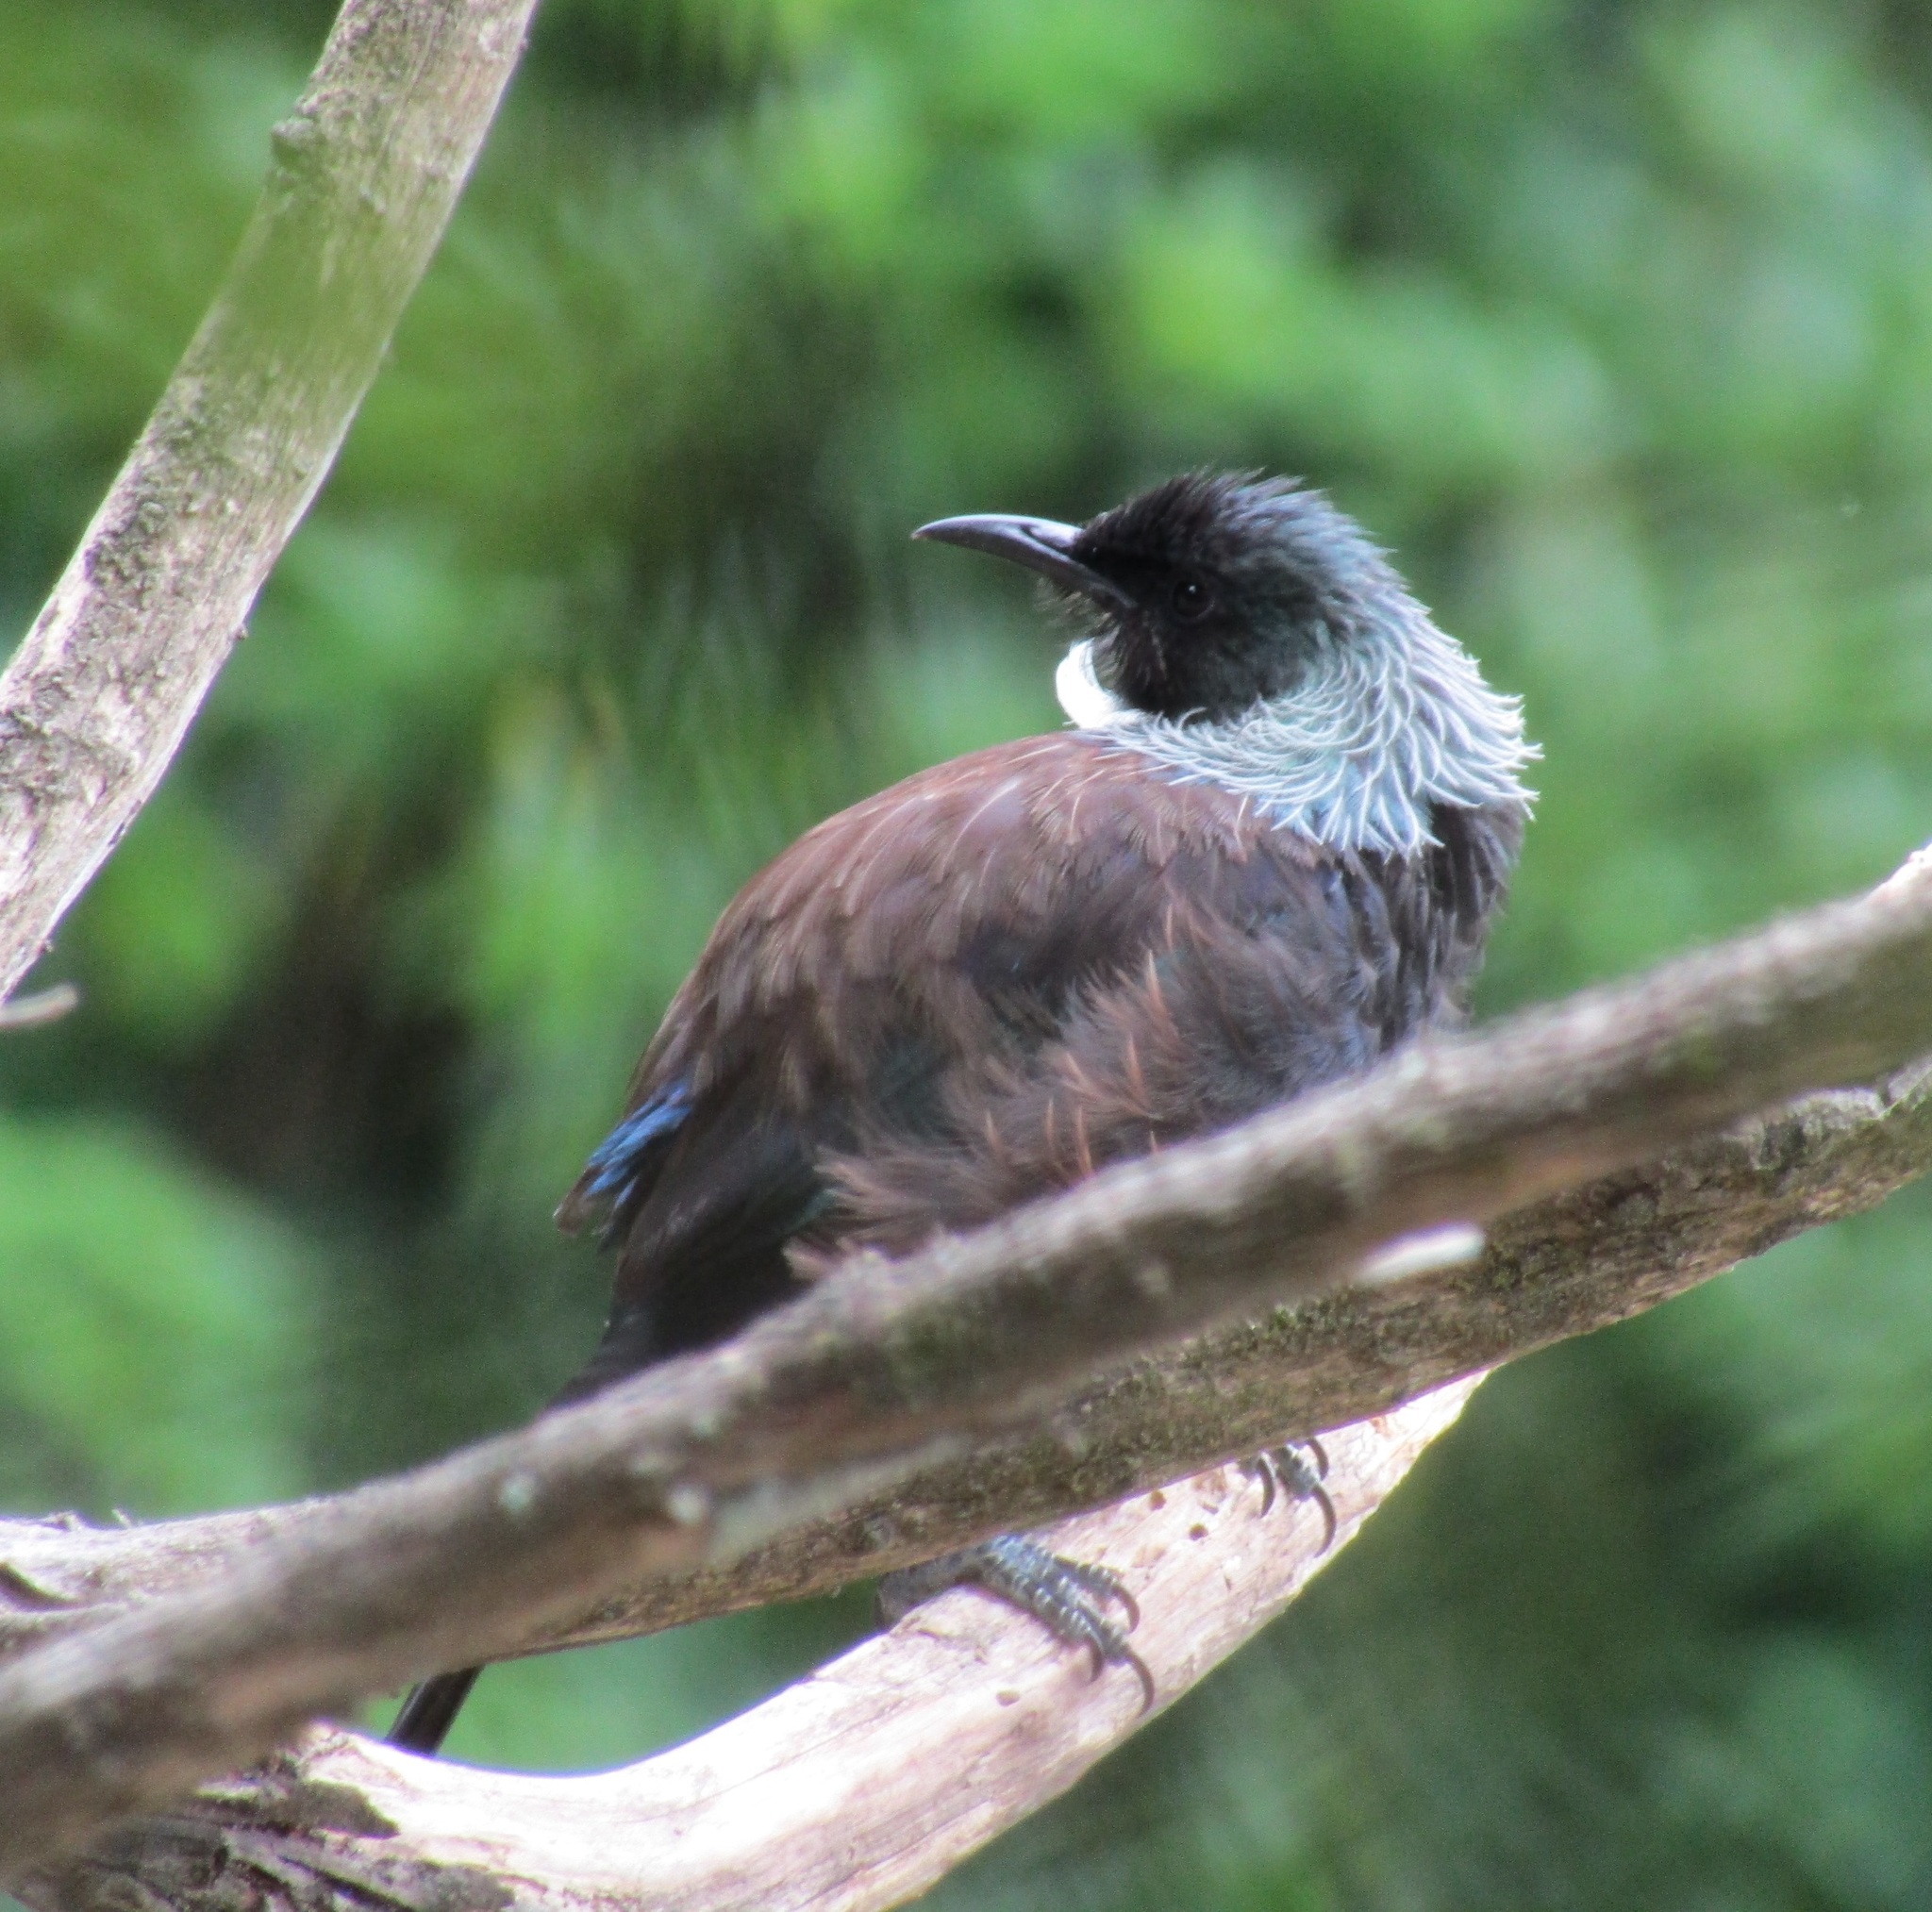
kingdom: Animalia
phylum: Chordata
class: Aves
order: Passeriformes
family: Meliphagidae
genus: Prosthemadera
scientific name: Prosthemadera novaeseelandiae
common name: Tui
